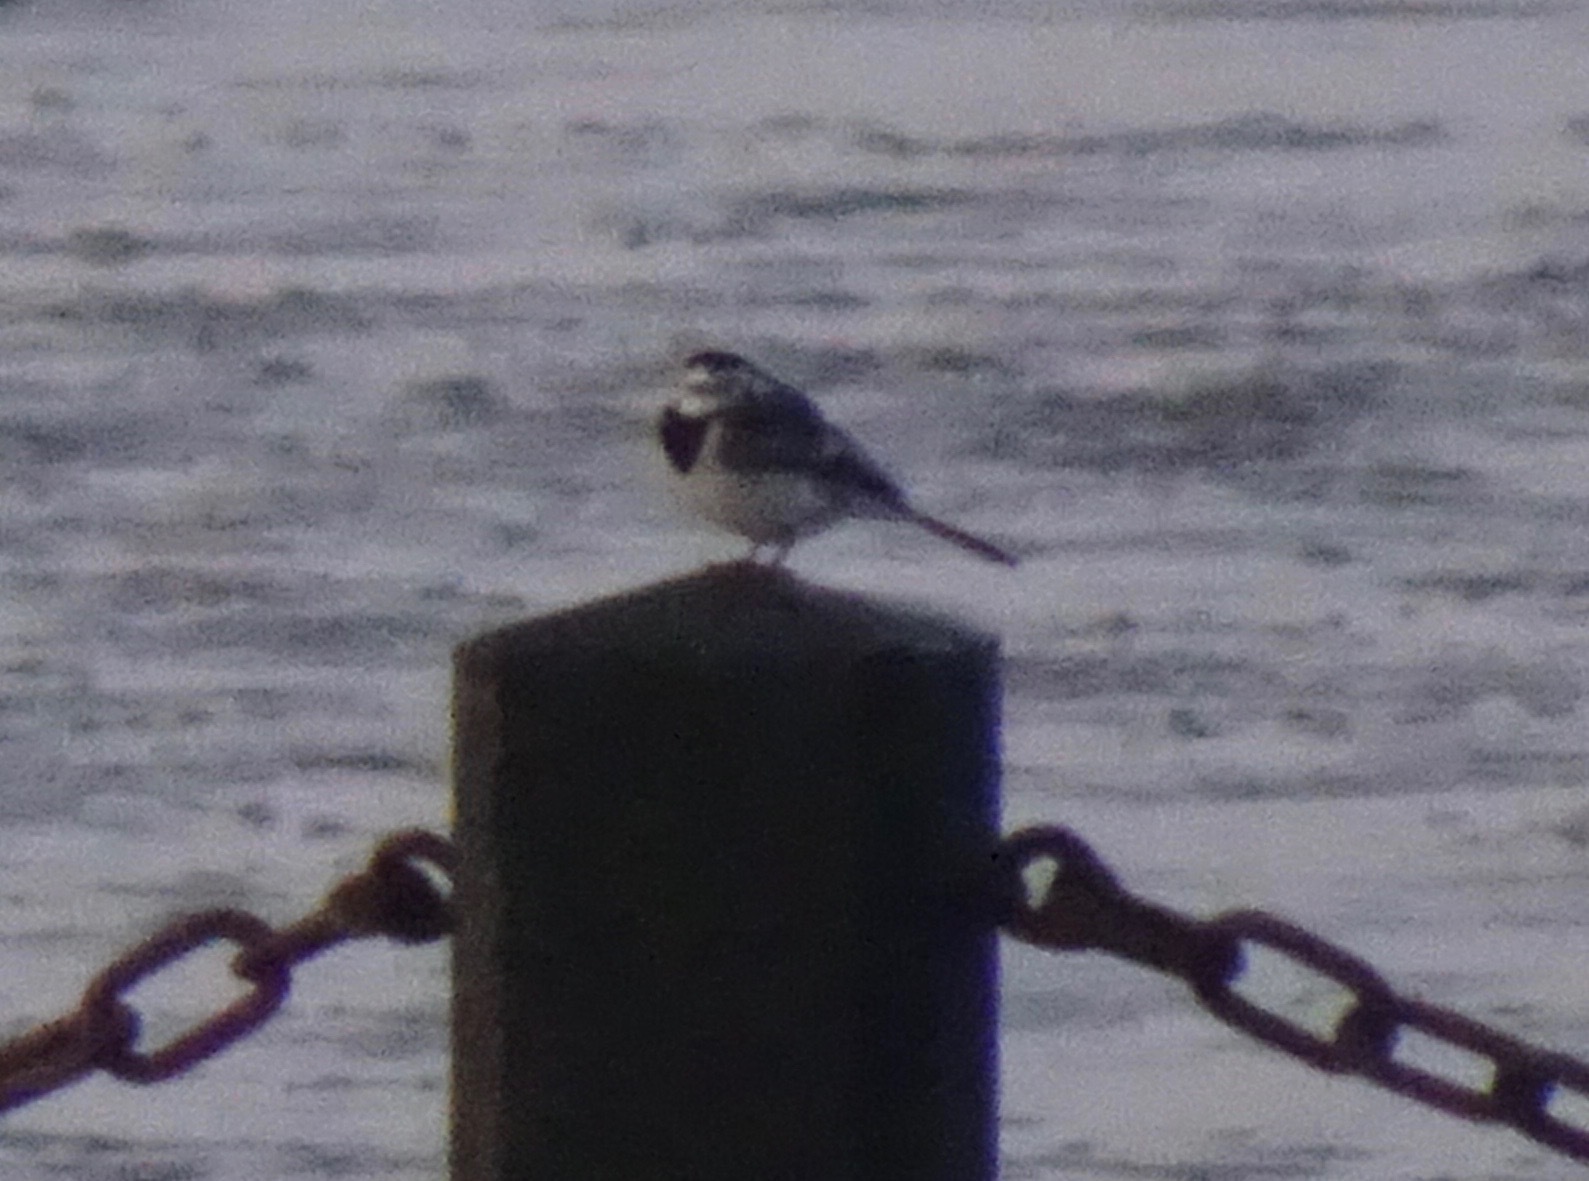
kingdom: Animalia
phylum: Chordata
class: Aves
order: Passeriformes
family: Motacillidae
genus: Motacilla
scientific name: Motacilla alba
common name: White wagtail
